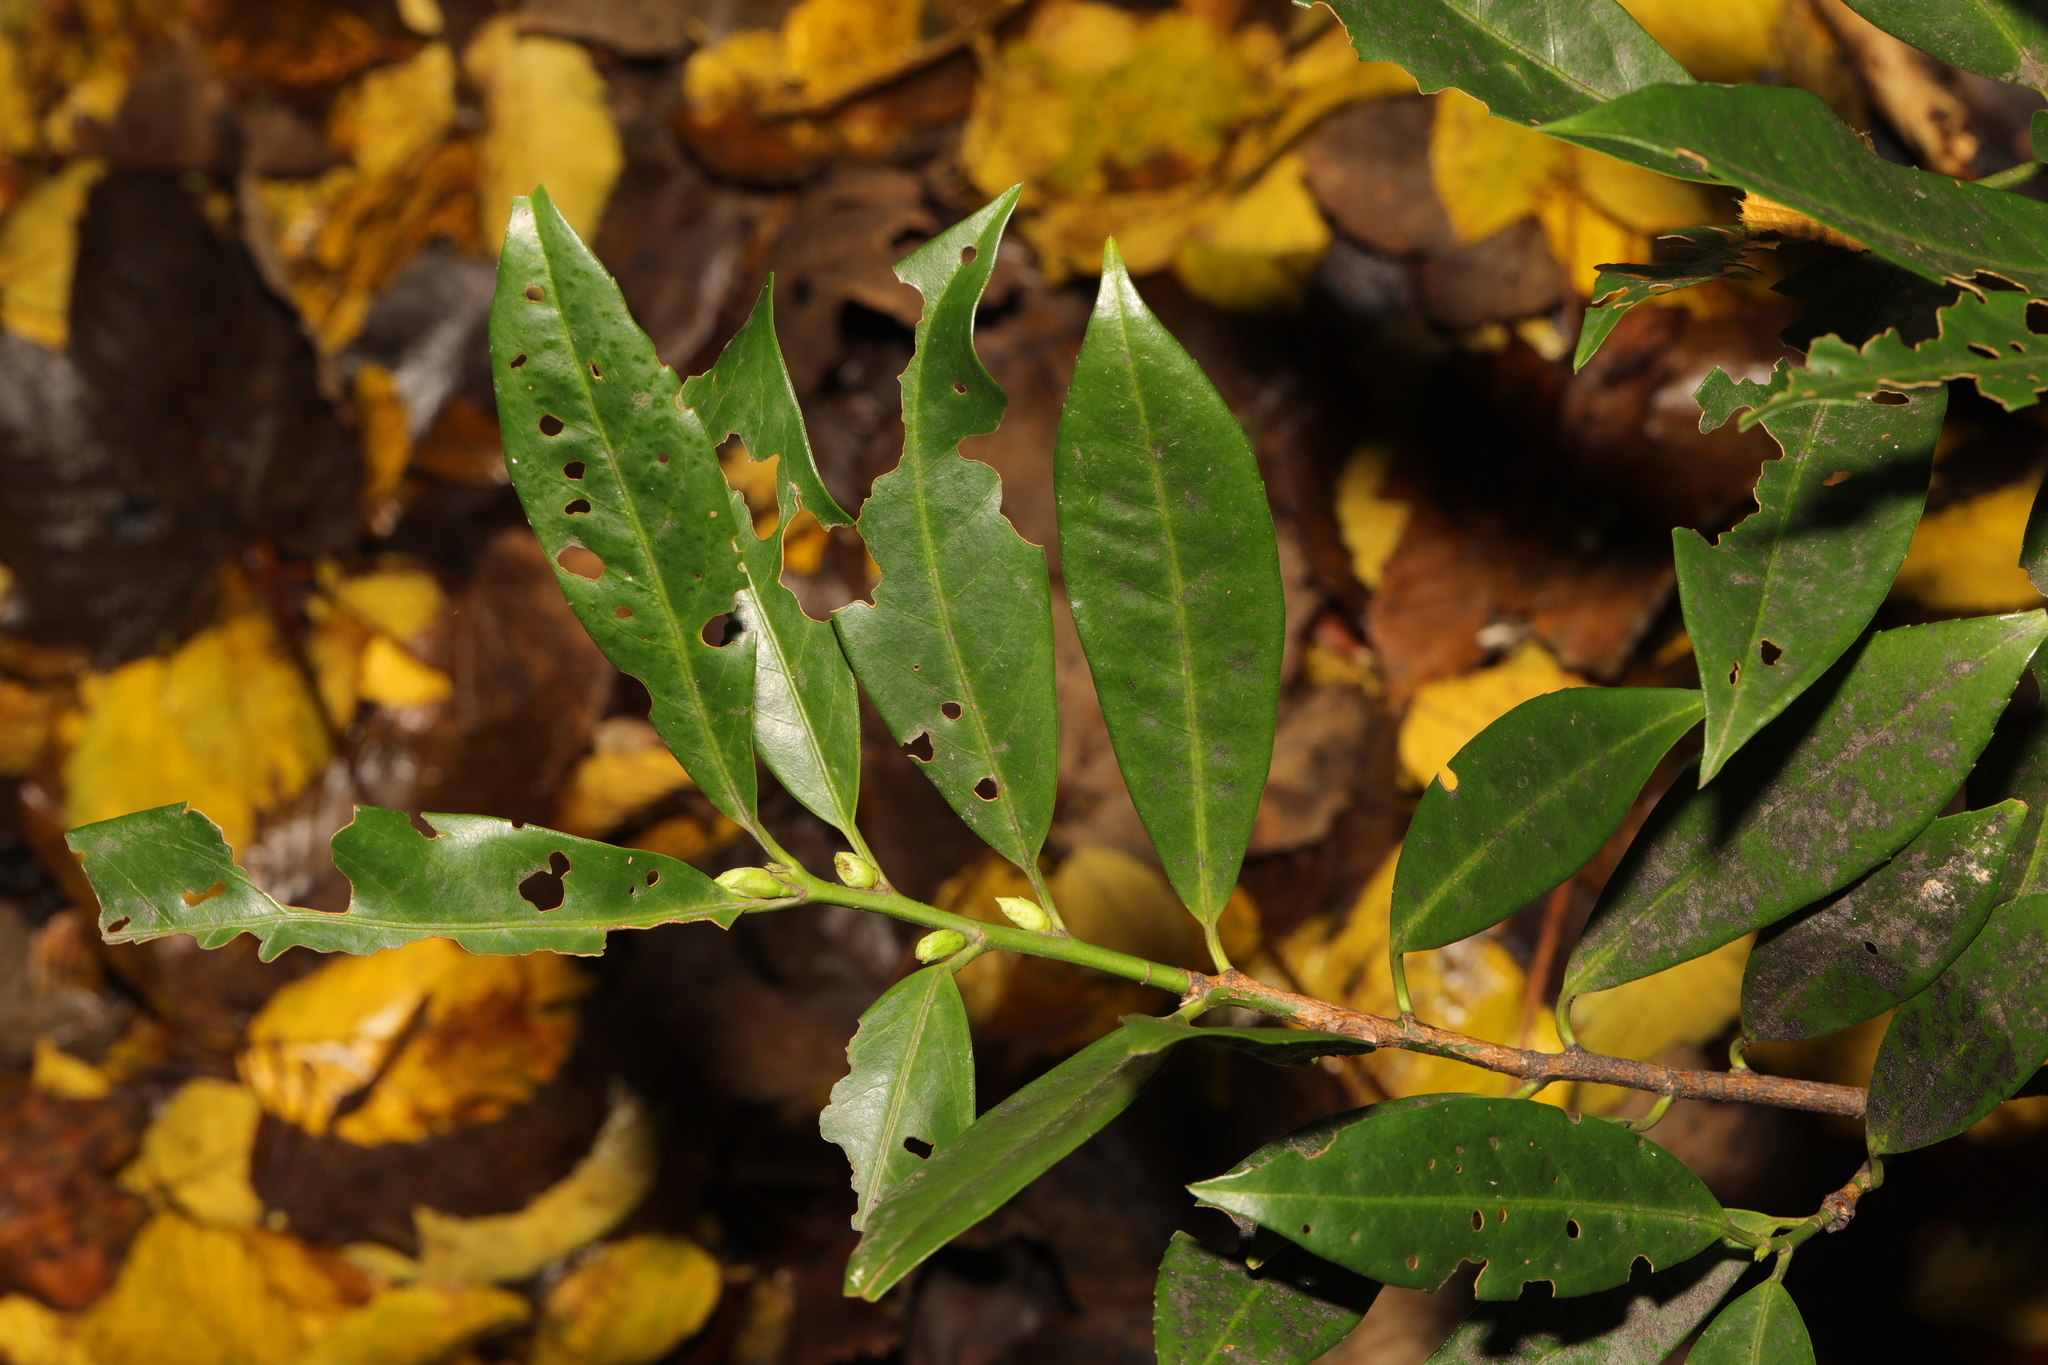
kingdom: Plantae
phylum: Tracheophyta
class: Magnoliopsida
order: Rosales
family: Rosaceae
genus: Prunus
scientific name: Prunus laurocerasus
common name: Cherry laurel
